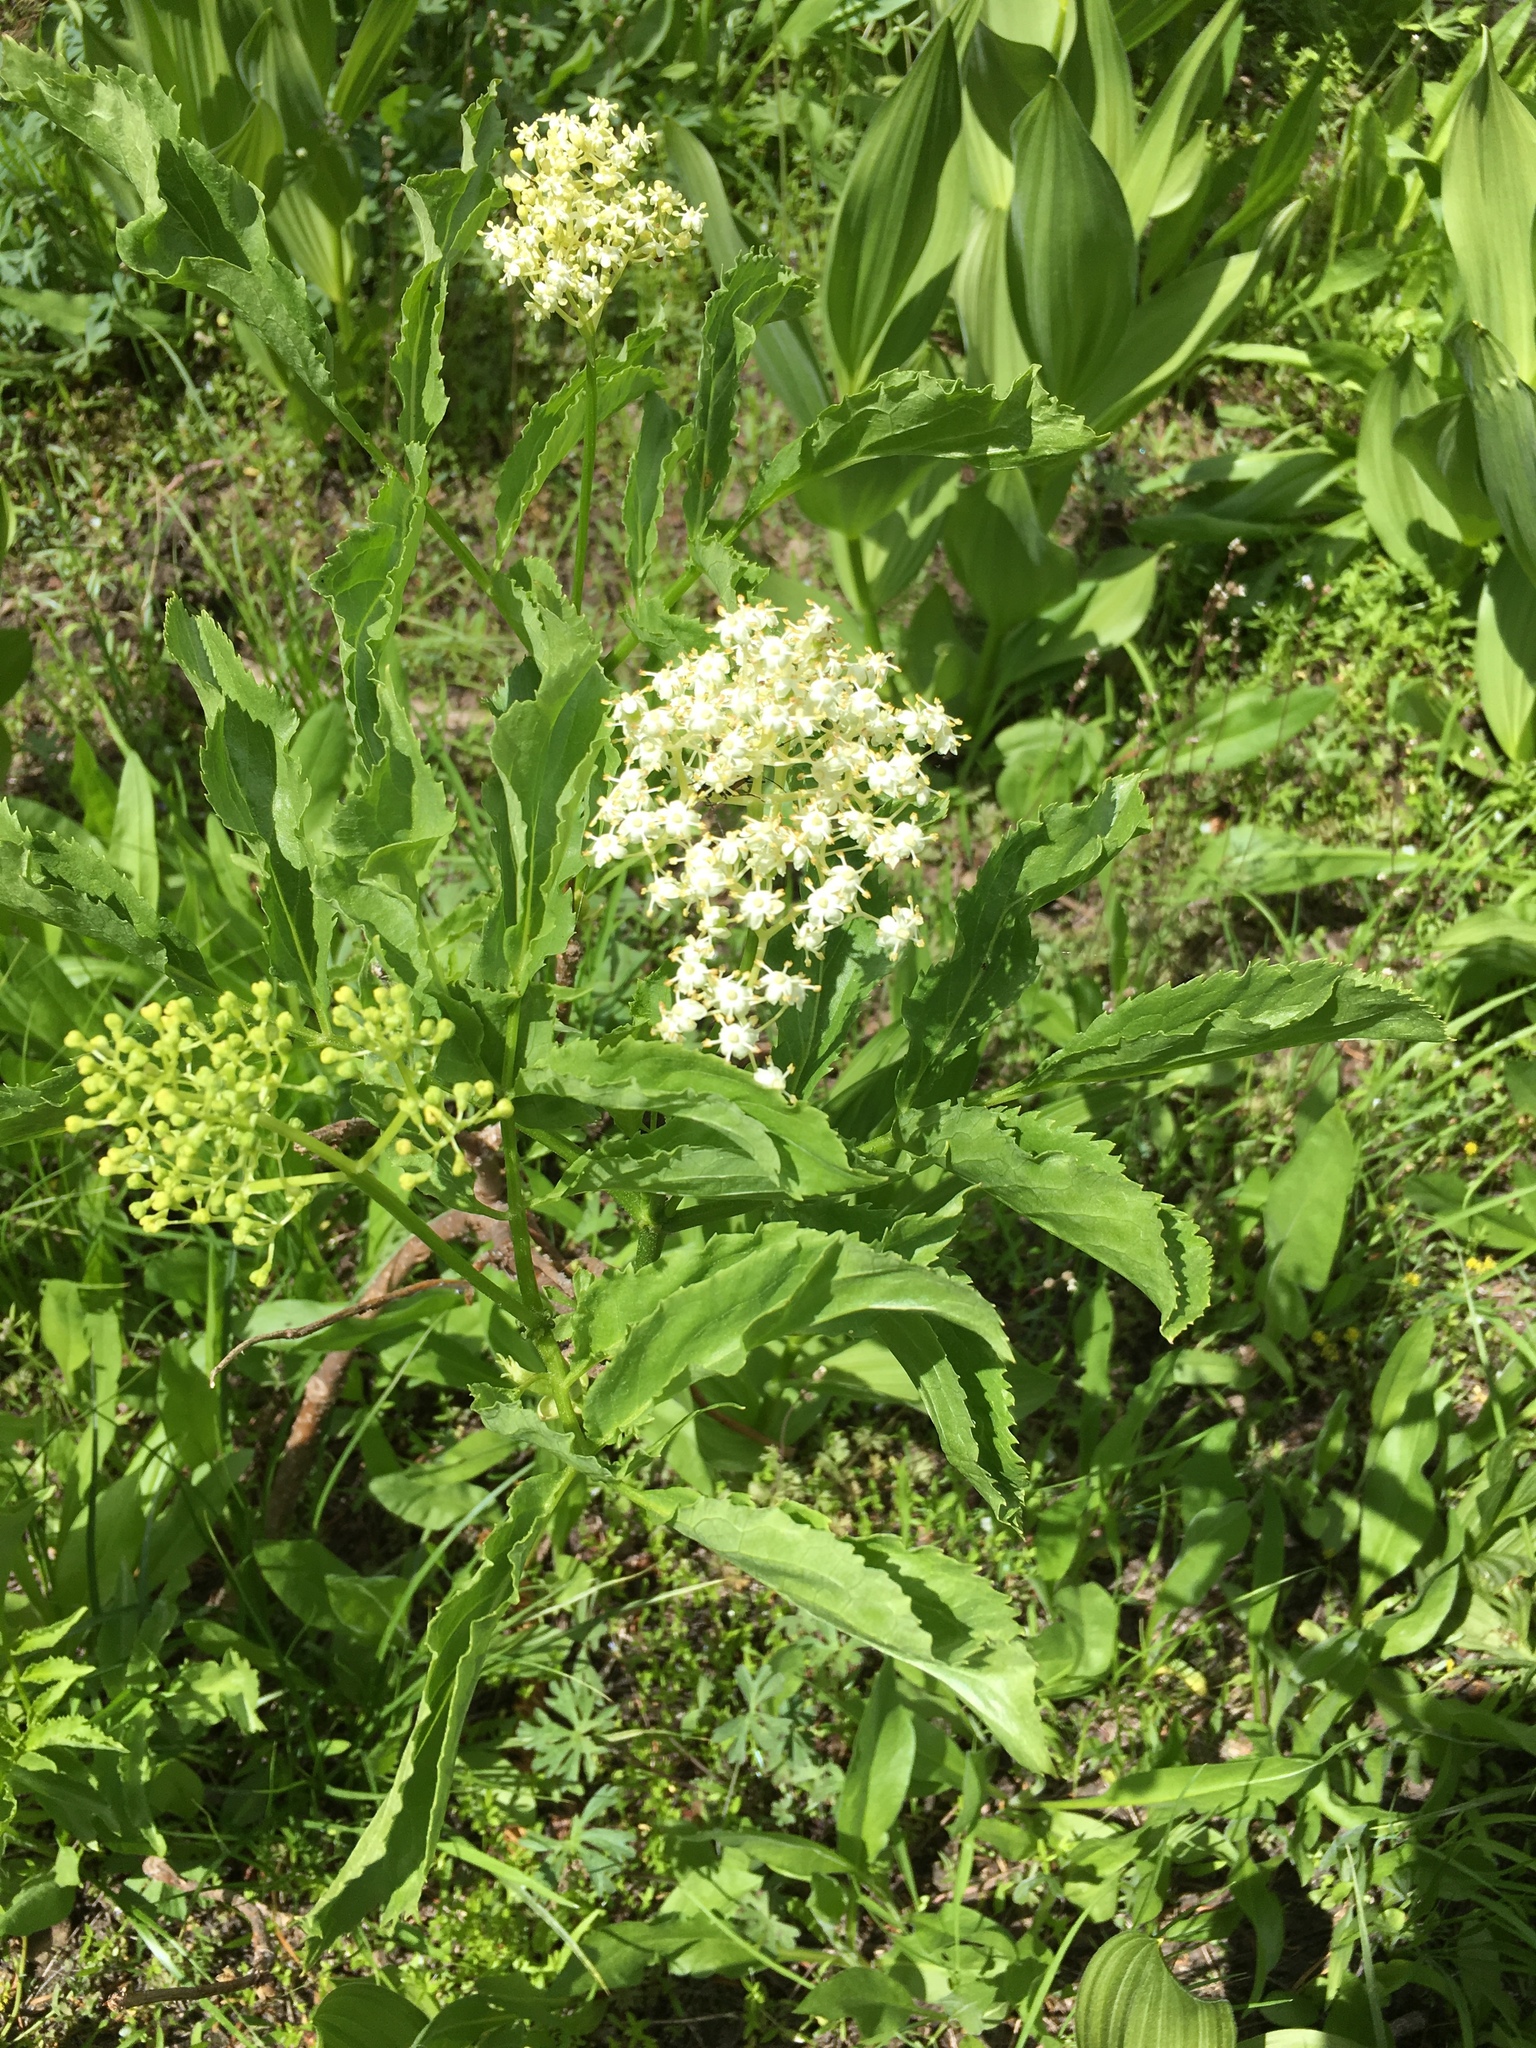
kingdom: Plantae
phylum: Tracheophyta
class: Magnoliopsida
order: Dipsacales
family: Viburnaceae
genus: Sambucus
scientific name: Sambucus racemosa
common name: Red-berried elder
